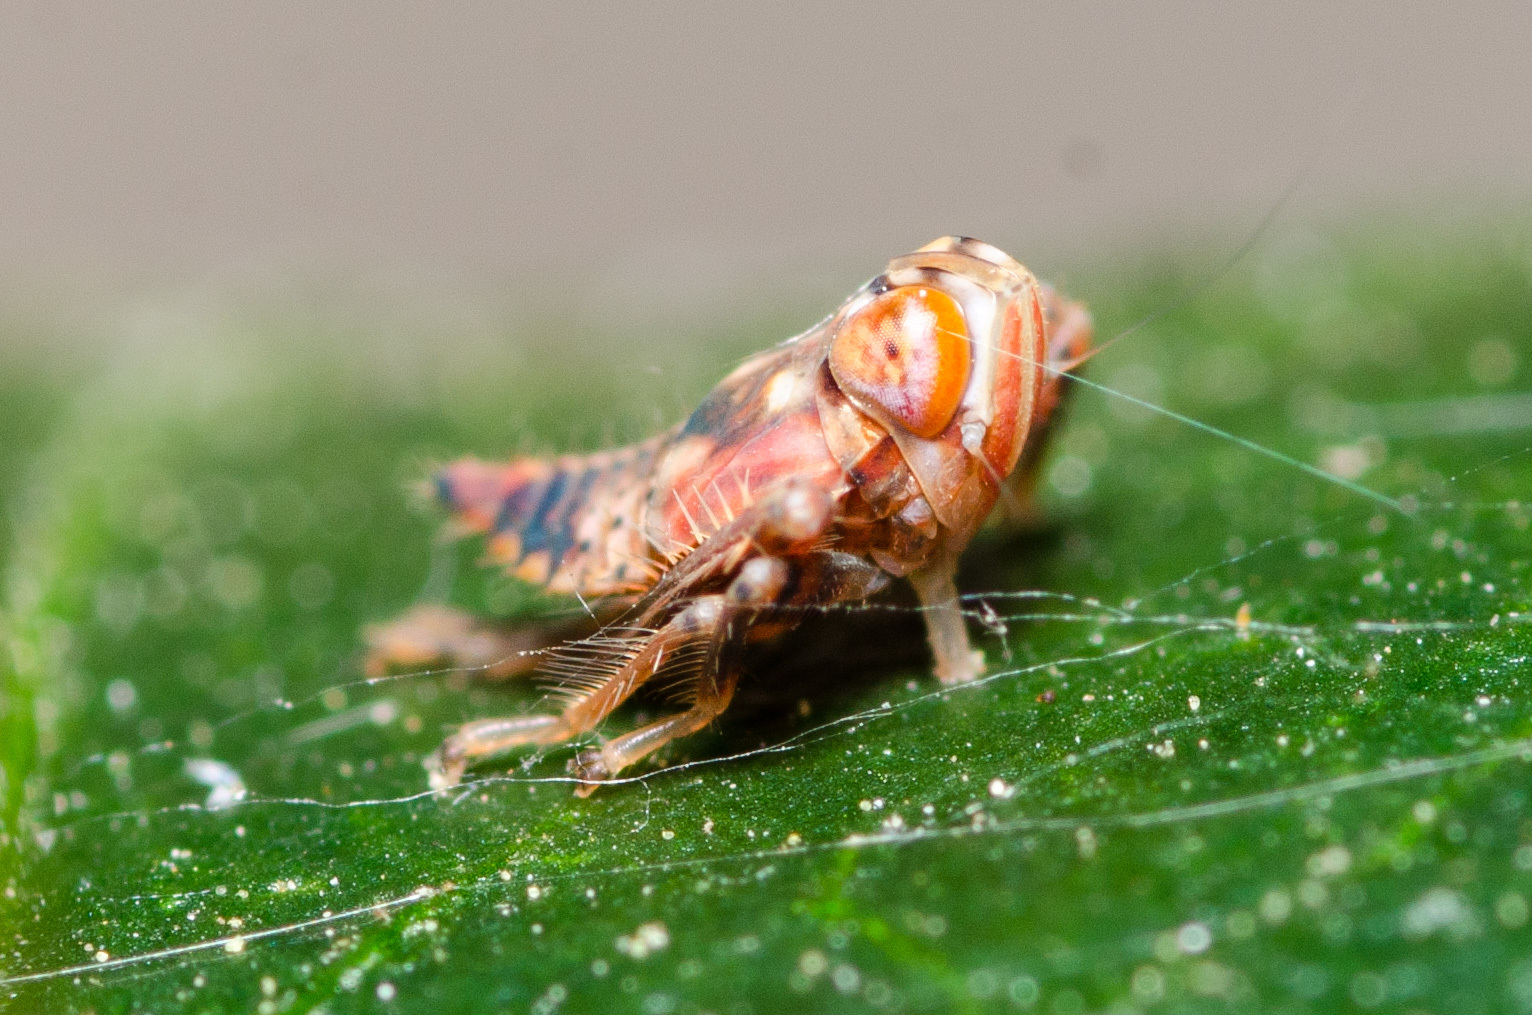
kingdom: Animalia
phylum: Arthropoda
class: Insecta
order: Hemiptera
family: Cicadellidae
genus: Jikradia
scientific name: Jikradia olitoria
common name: Coppery leafhopper
